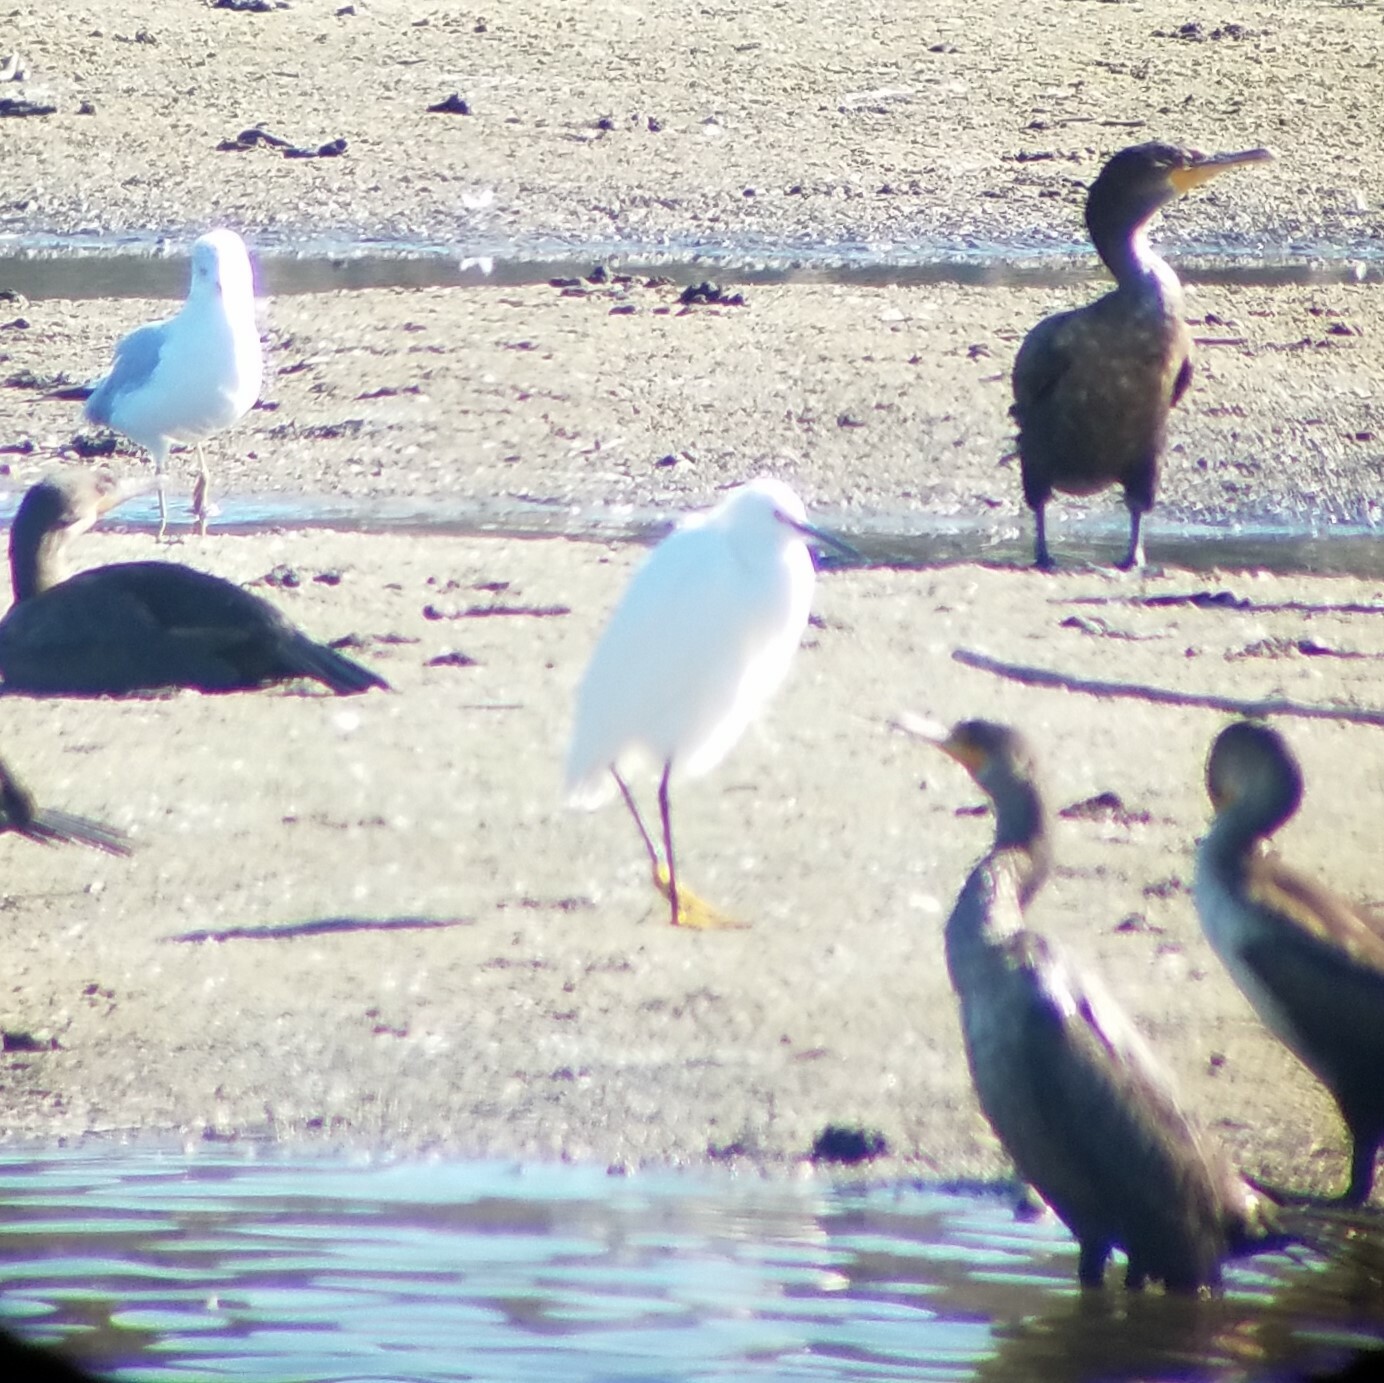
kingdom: Animalia
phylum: Chordata
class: Aves
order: Pelecaniformes
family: Ardeidae
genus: Egretta
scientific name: Egretta thula
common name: Snowy egret
